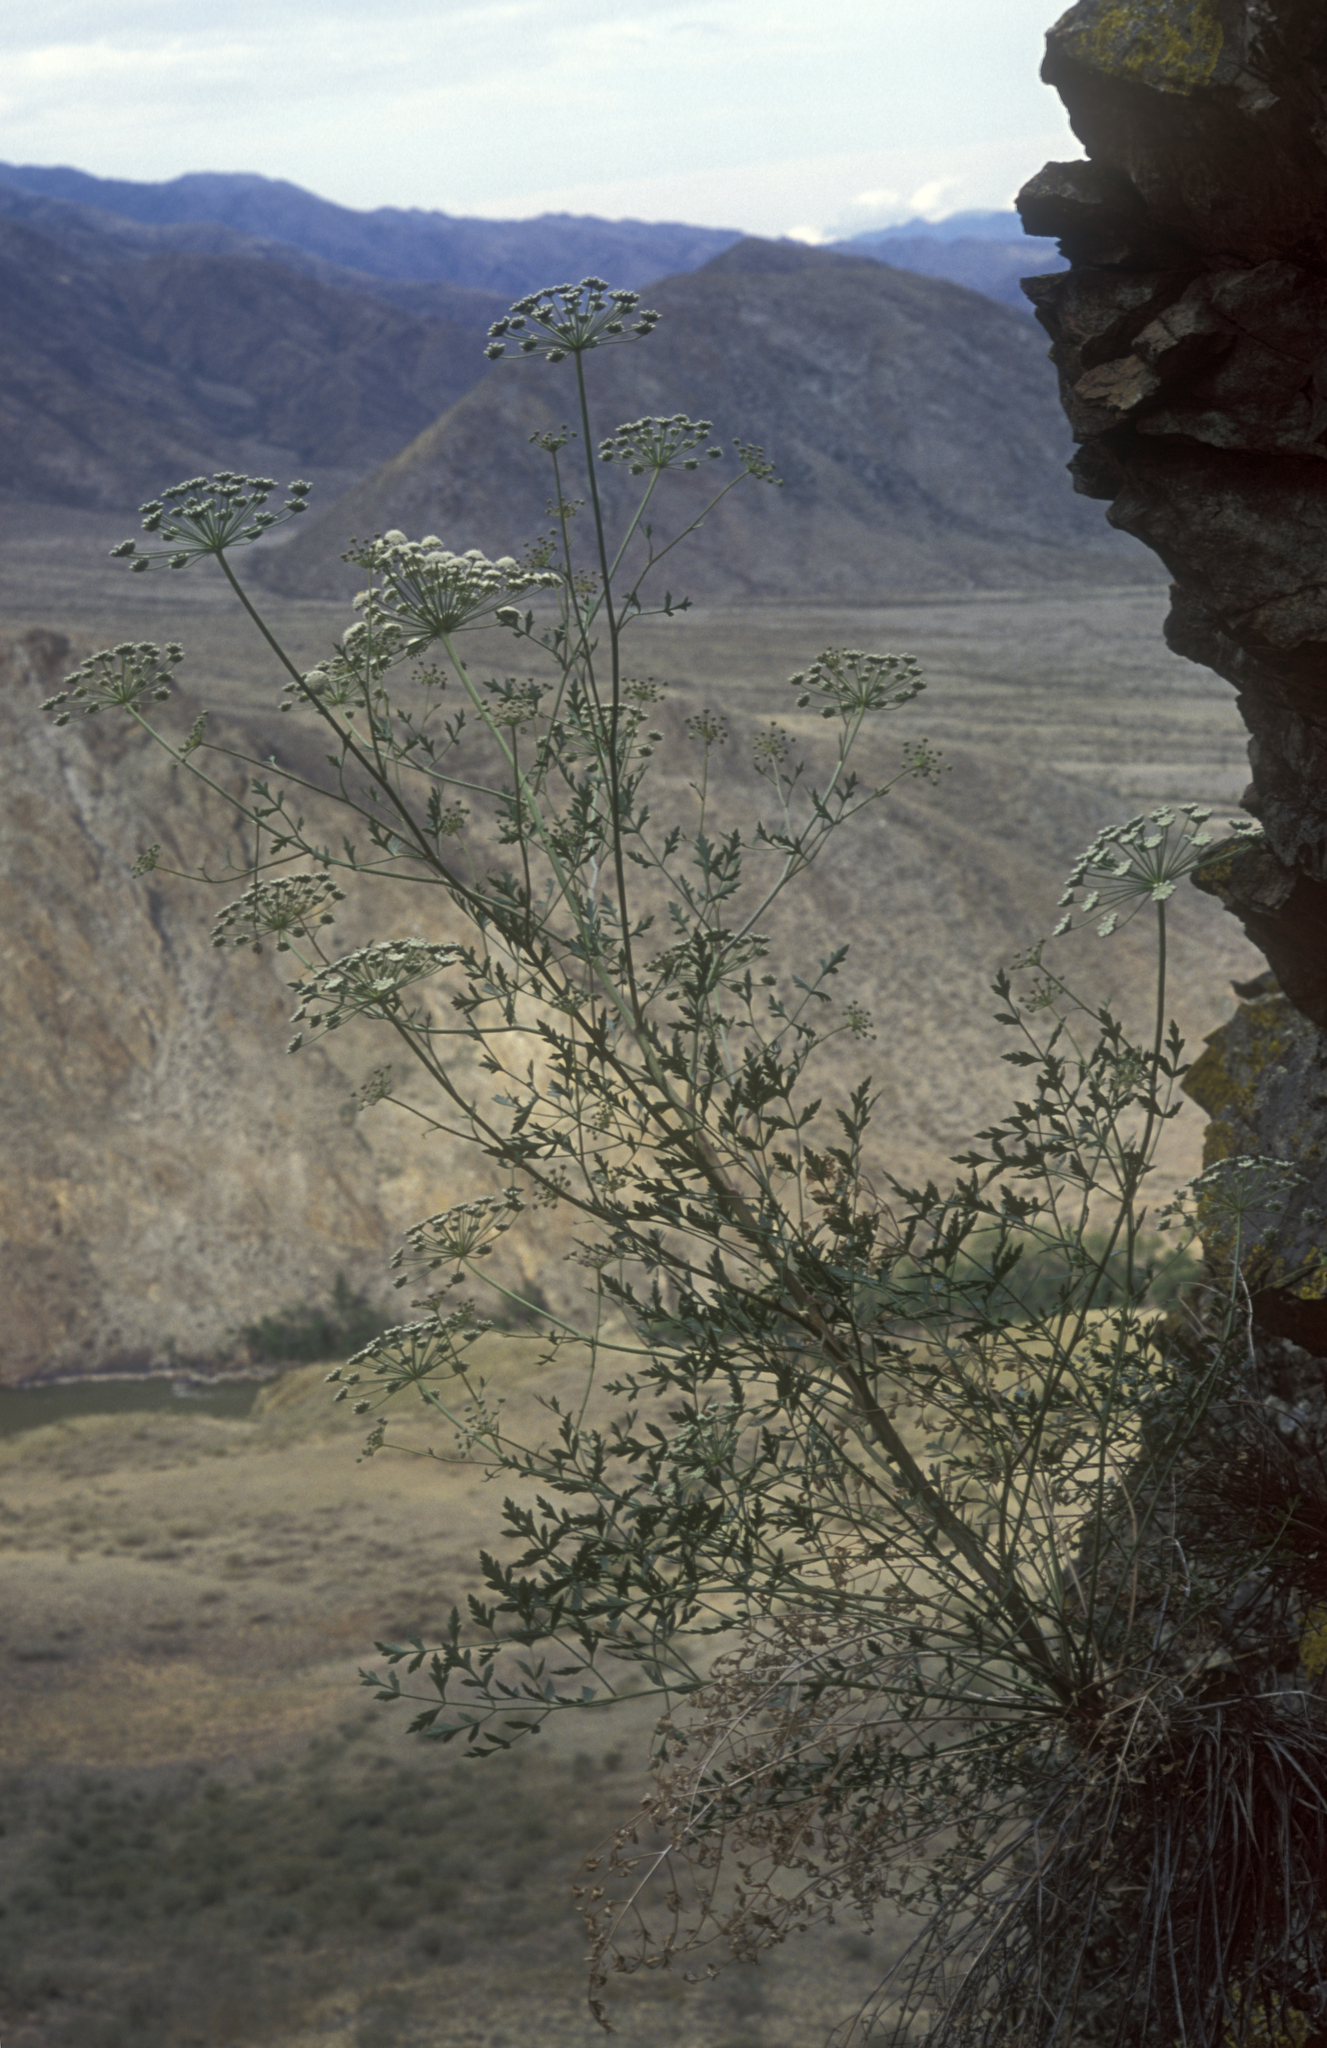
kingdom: Plantae
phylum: Tracheophyta
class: Magnoliopsida
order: Apiales
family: Apiaceae
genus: Seseli
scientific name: Seseli buchtormense
